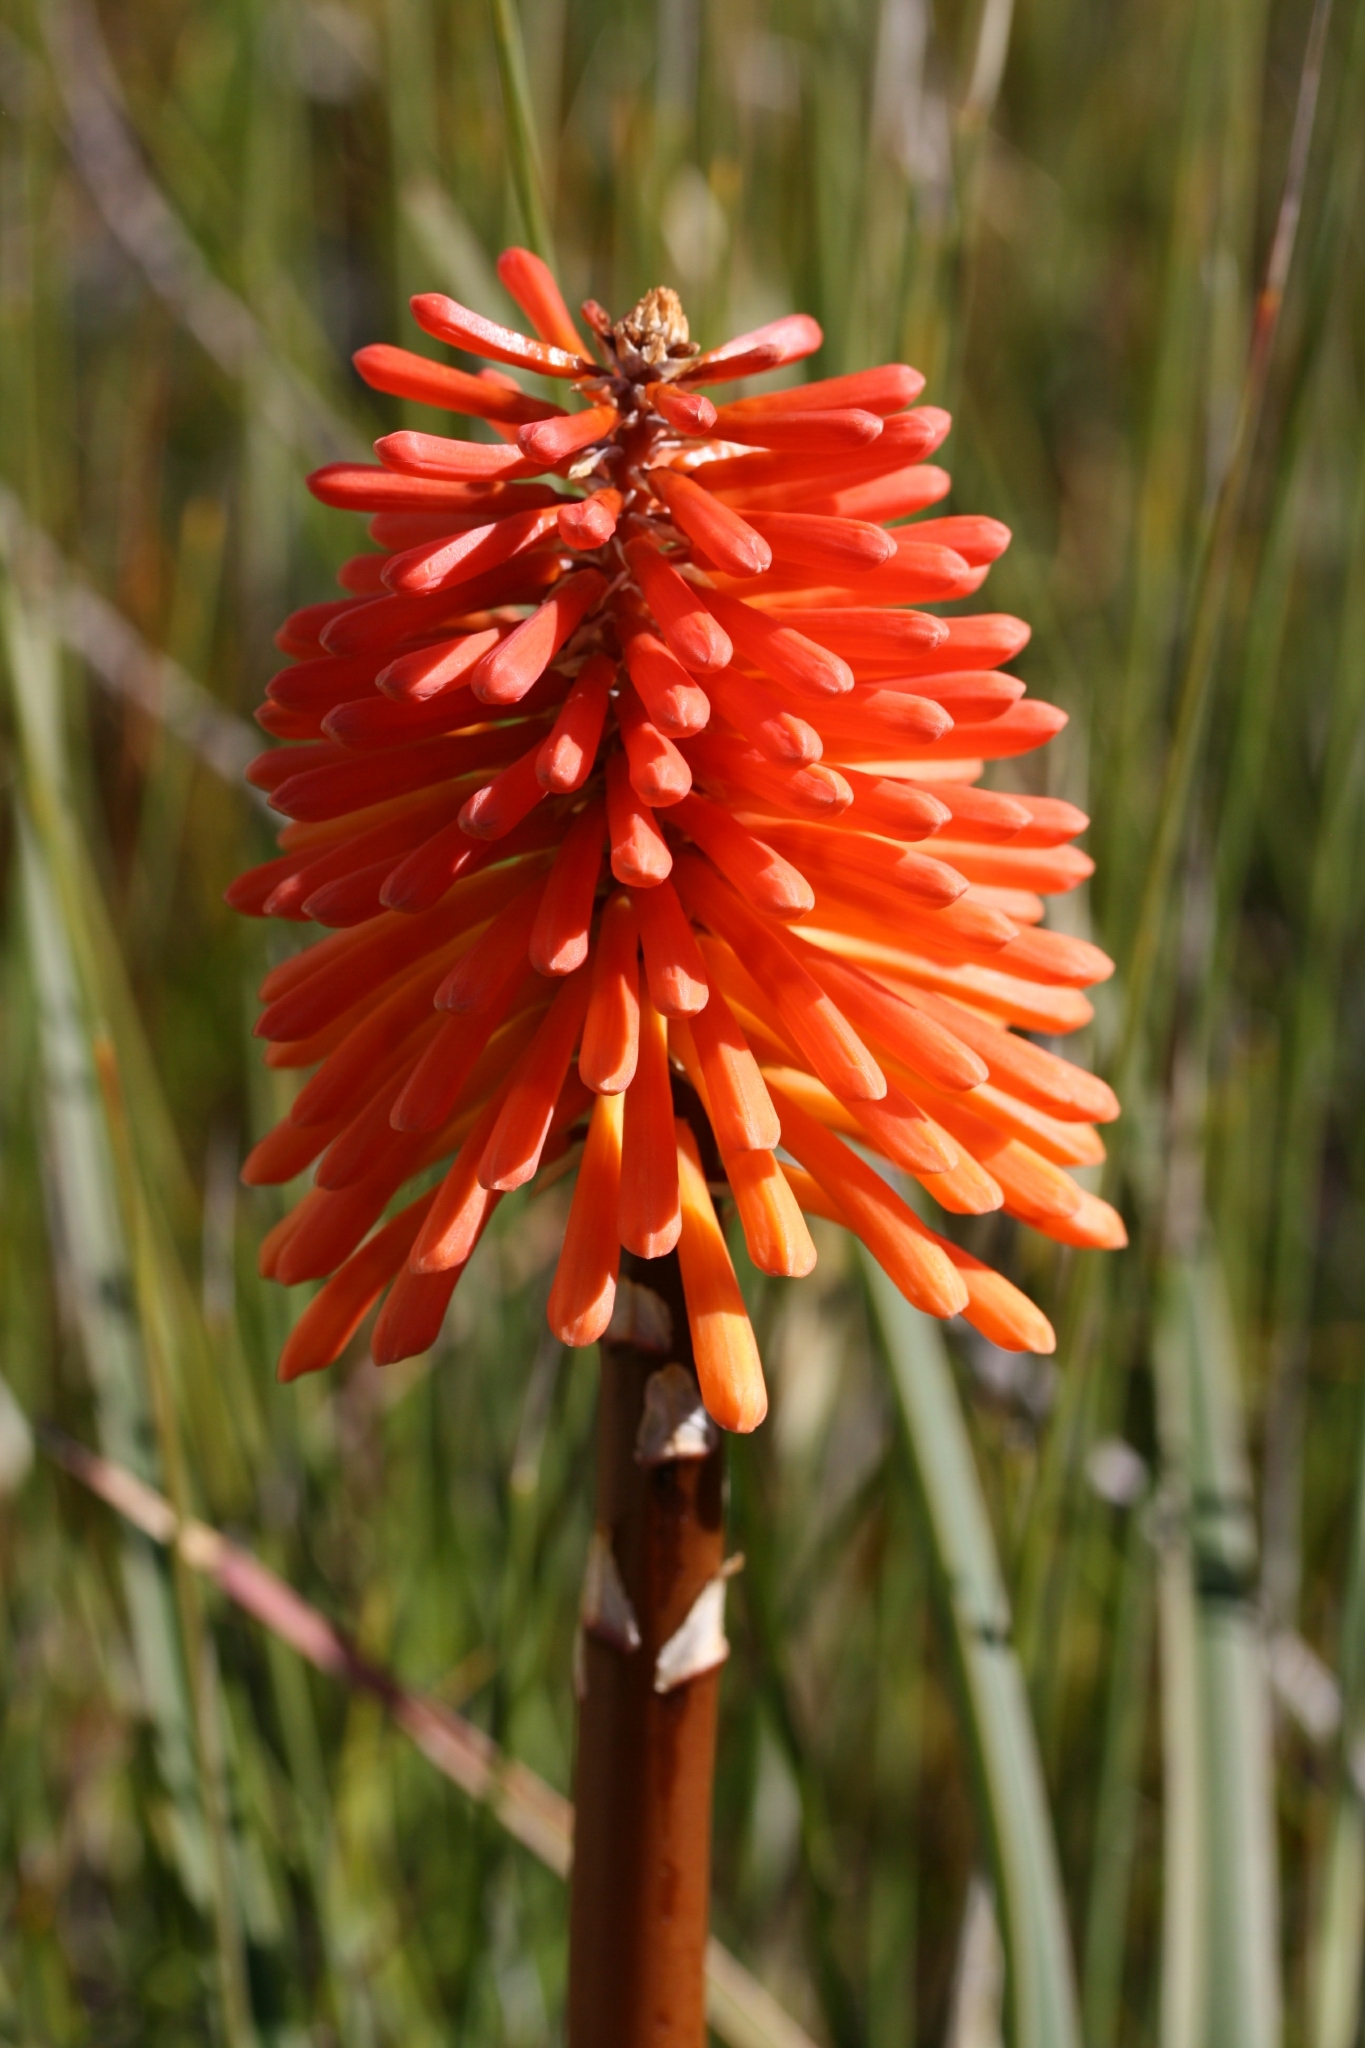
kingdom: Plantae
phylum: Tracheophyta
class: Liliopsida
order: Asparagales
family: Asphodelaceae
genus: Kniphofia
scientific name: Kniphofia uvaria
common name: Red-hot-poker
